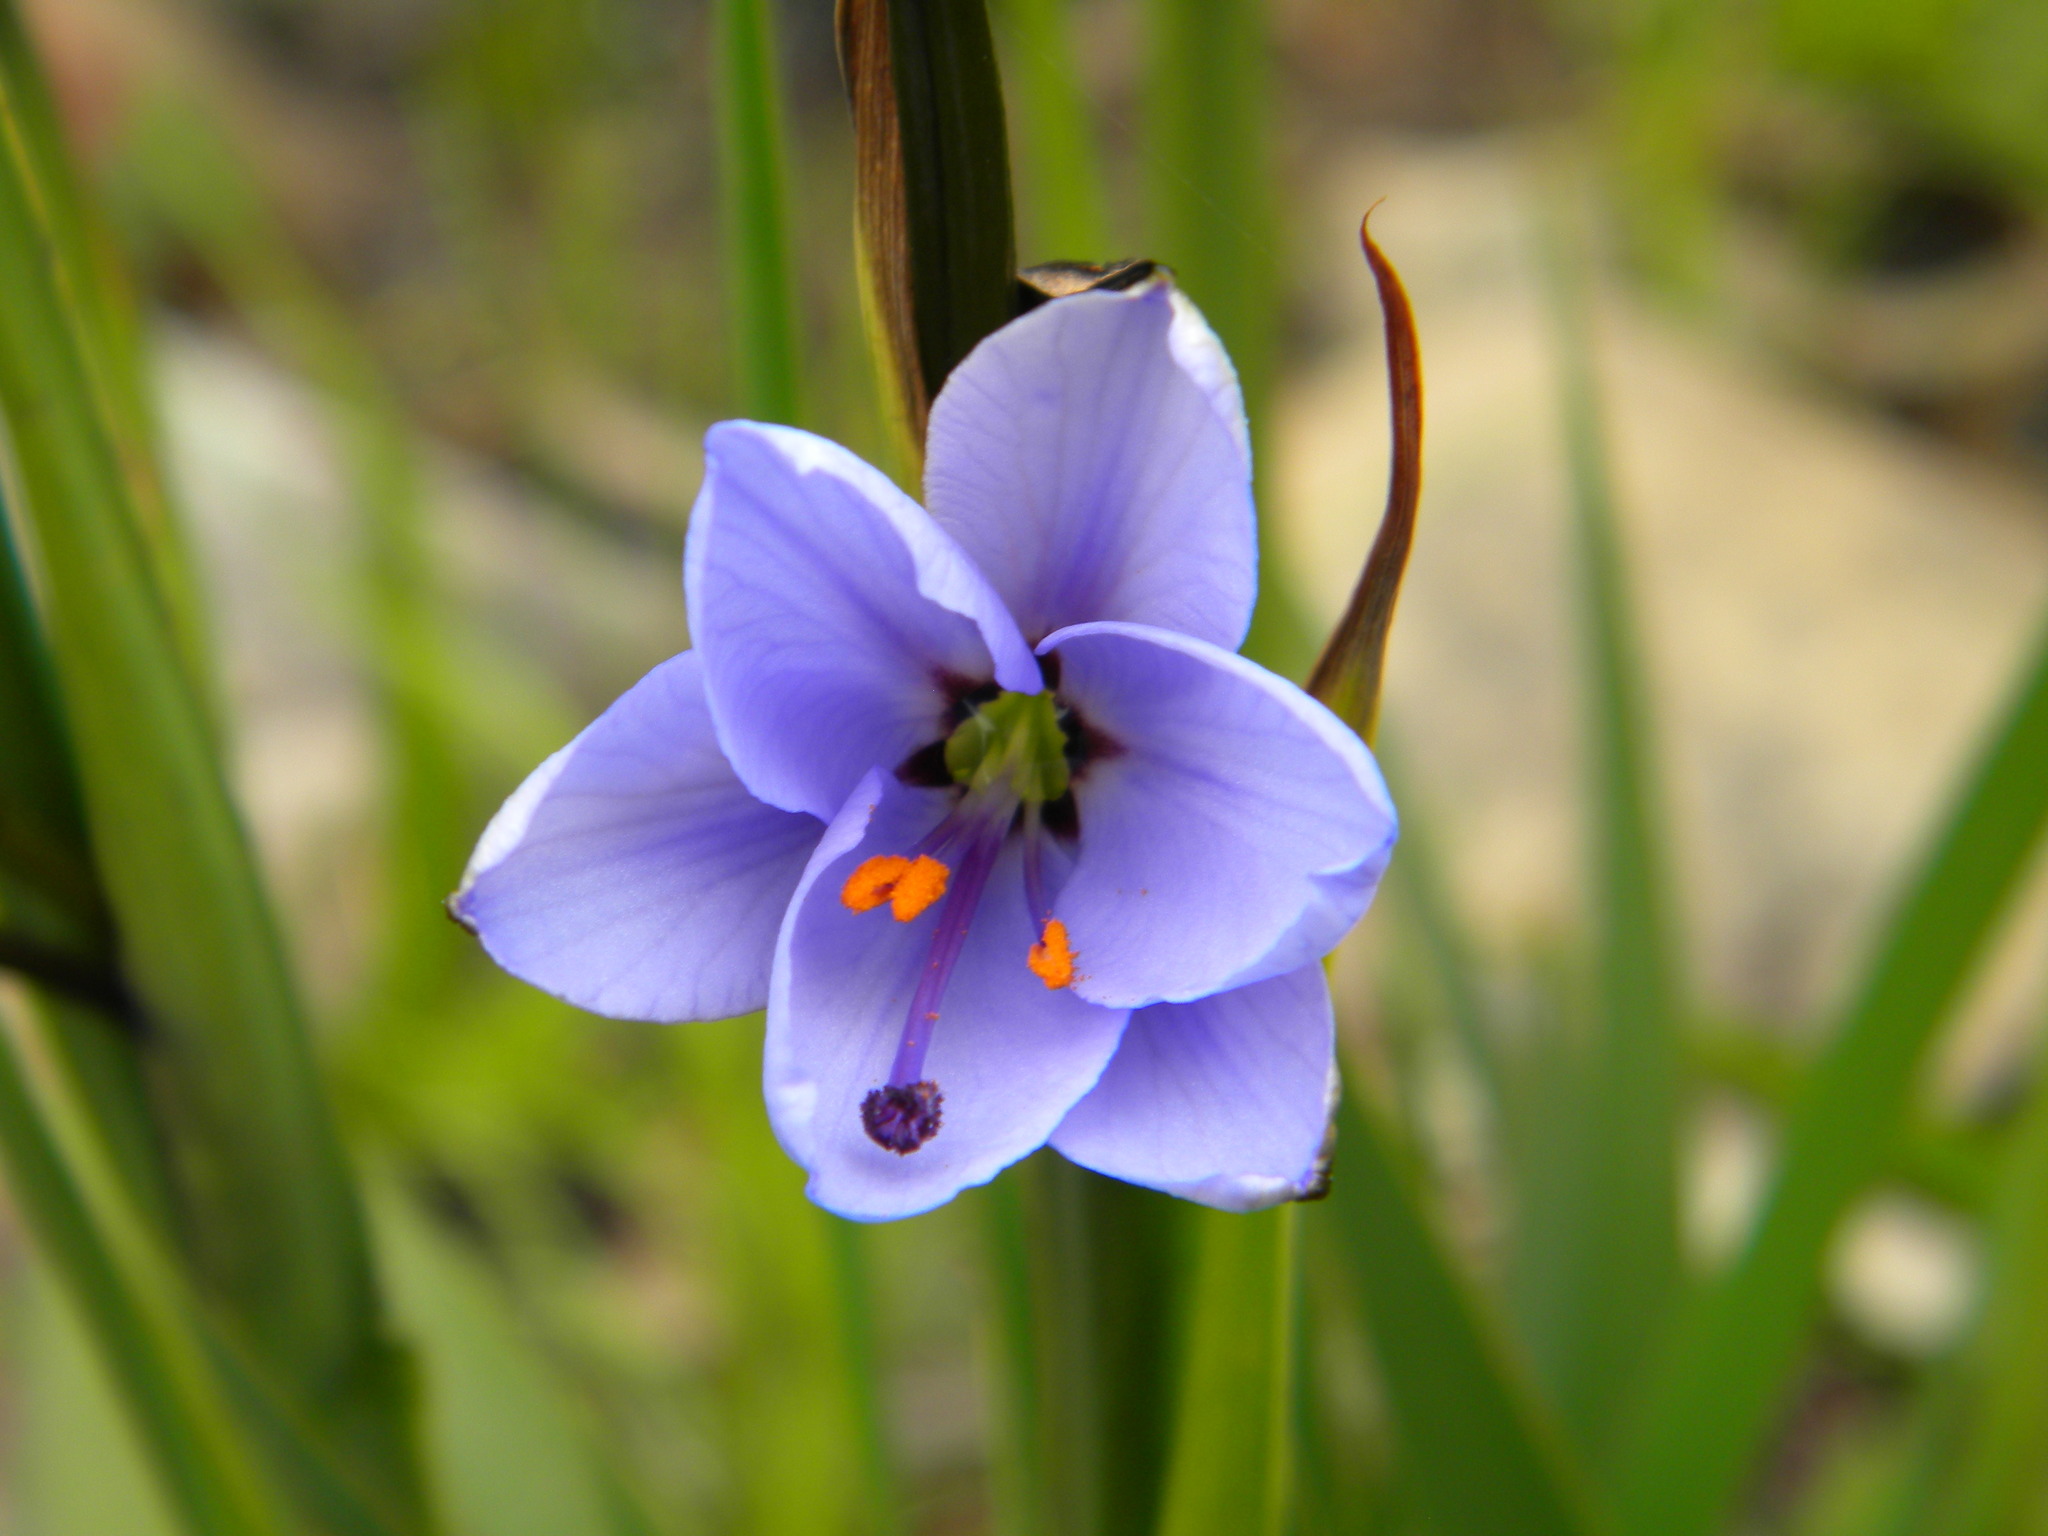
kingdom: Plantae
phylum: Tracheophyta
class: Liliopsida
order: Asparagales
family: Iridaceae
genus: Aristea
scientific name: Aristea spiralis
